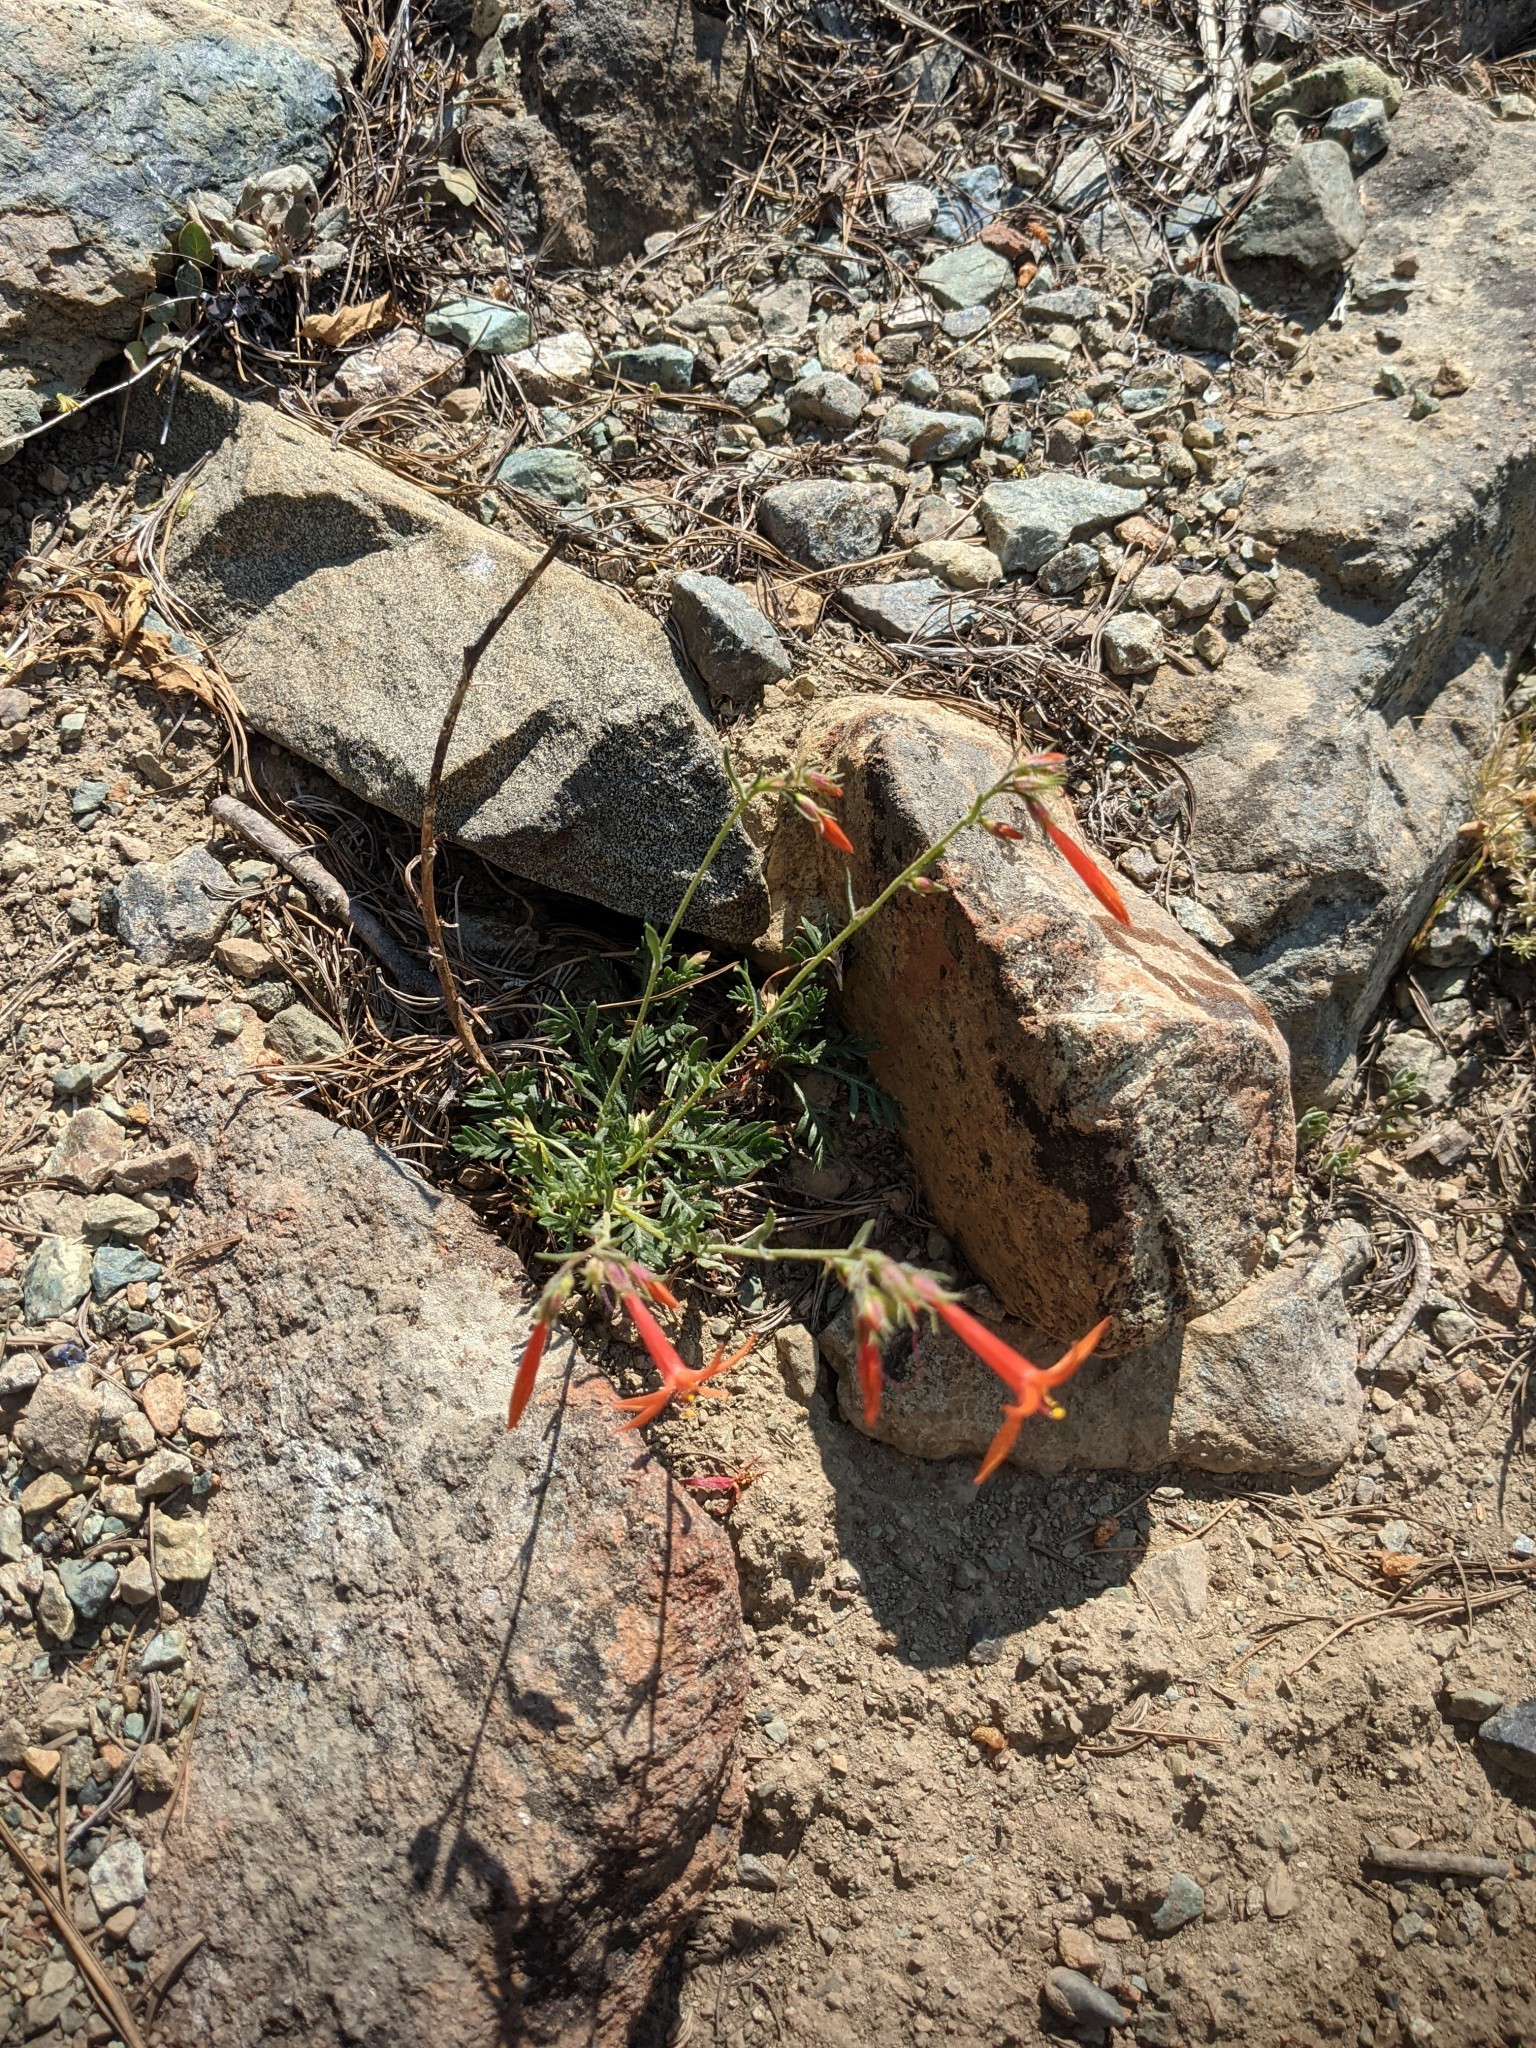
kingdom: Plantae
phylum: Tracheophyta
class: Magnoliopsida
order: Ericales
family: Polemoniaceae
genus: Ipomopsis
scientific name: Ipomopsis aggregata
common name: Scarlet gilia
